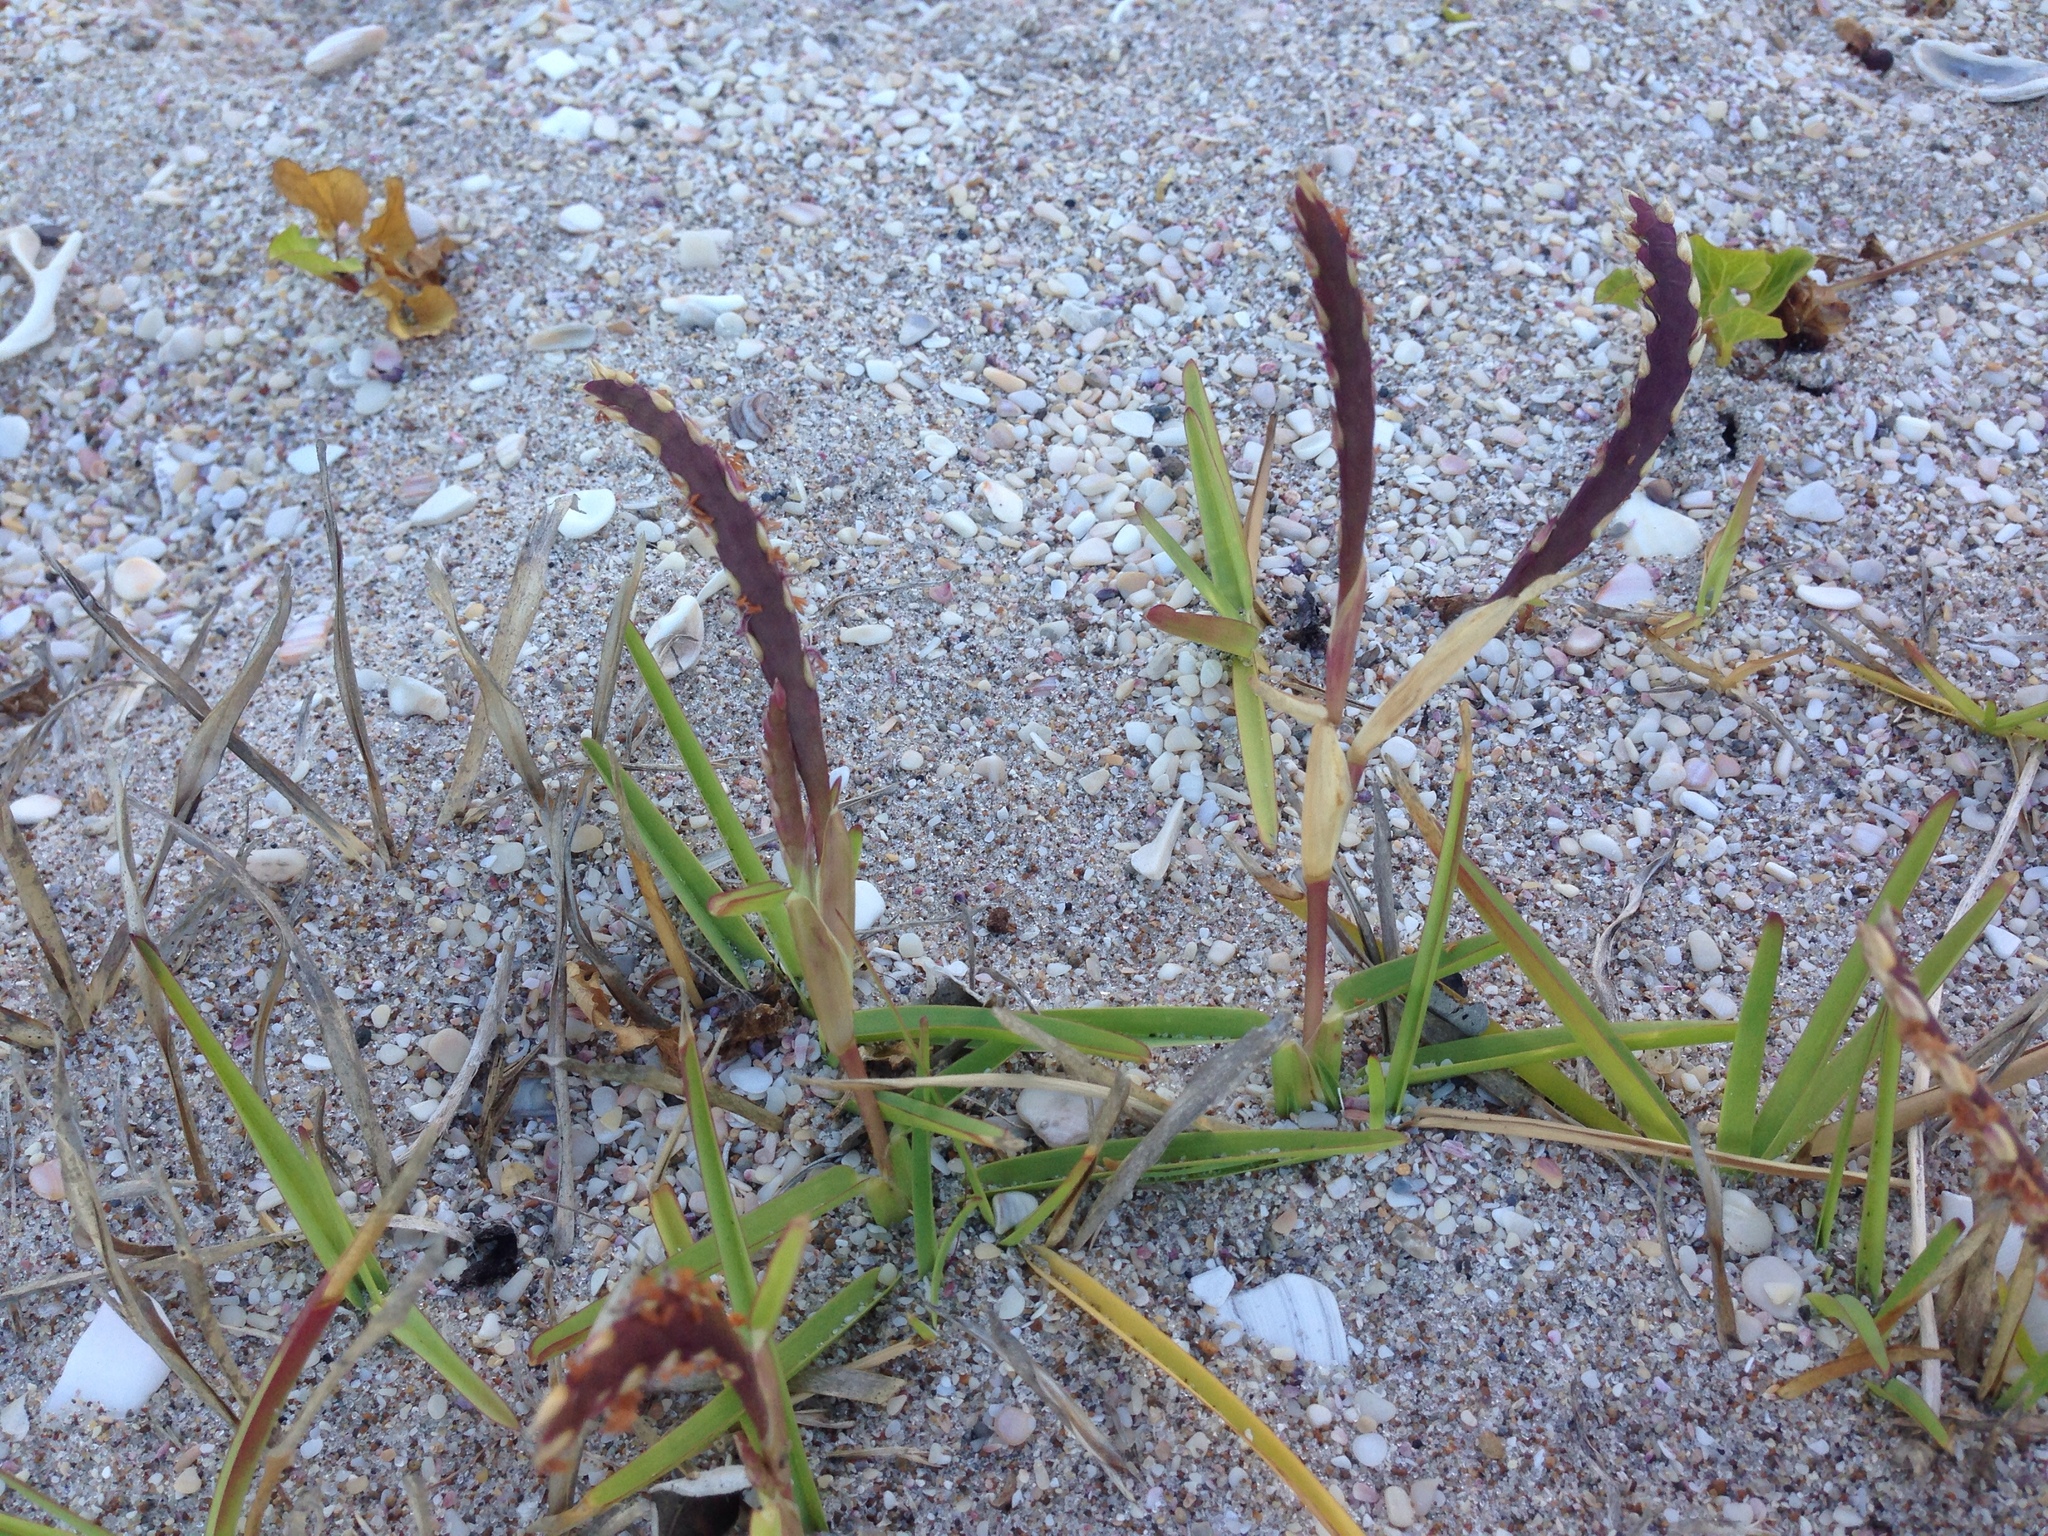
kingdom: Plantae
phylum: Tracheophyta
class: Liliopsida
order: Poales
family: Poaceae
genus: Stenotaphrum
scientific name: Stenotaphrum secundatum
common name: St. augustine grass
